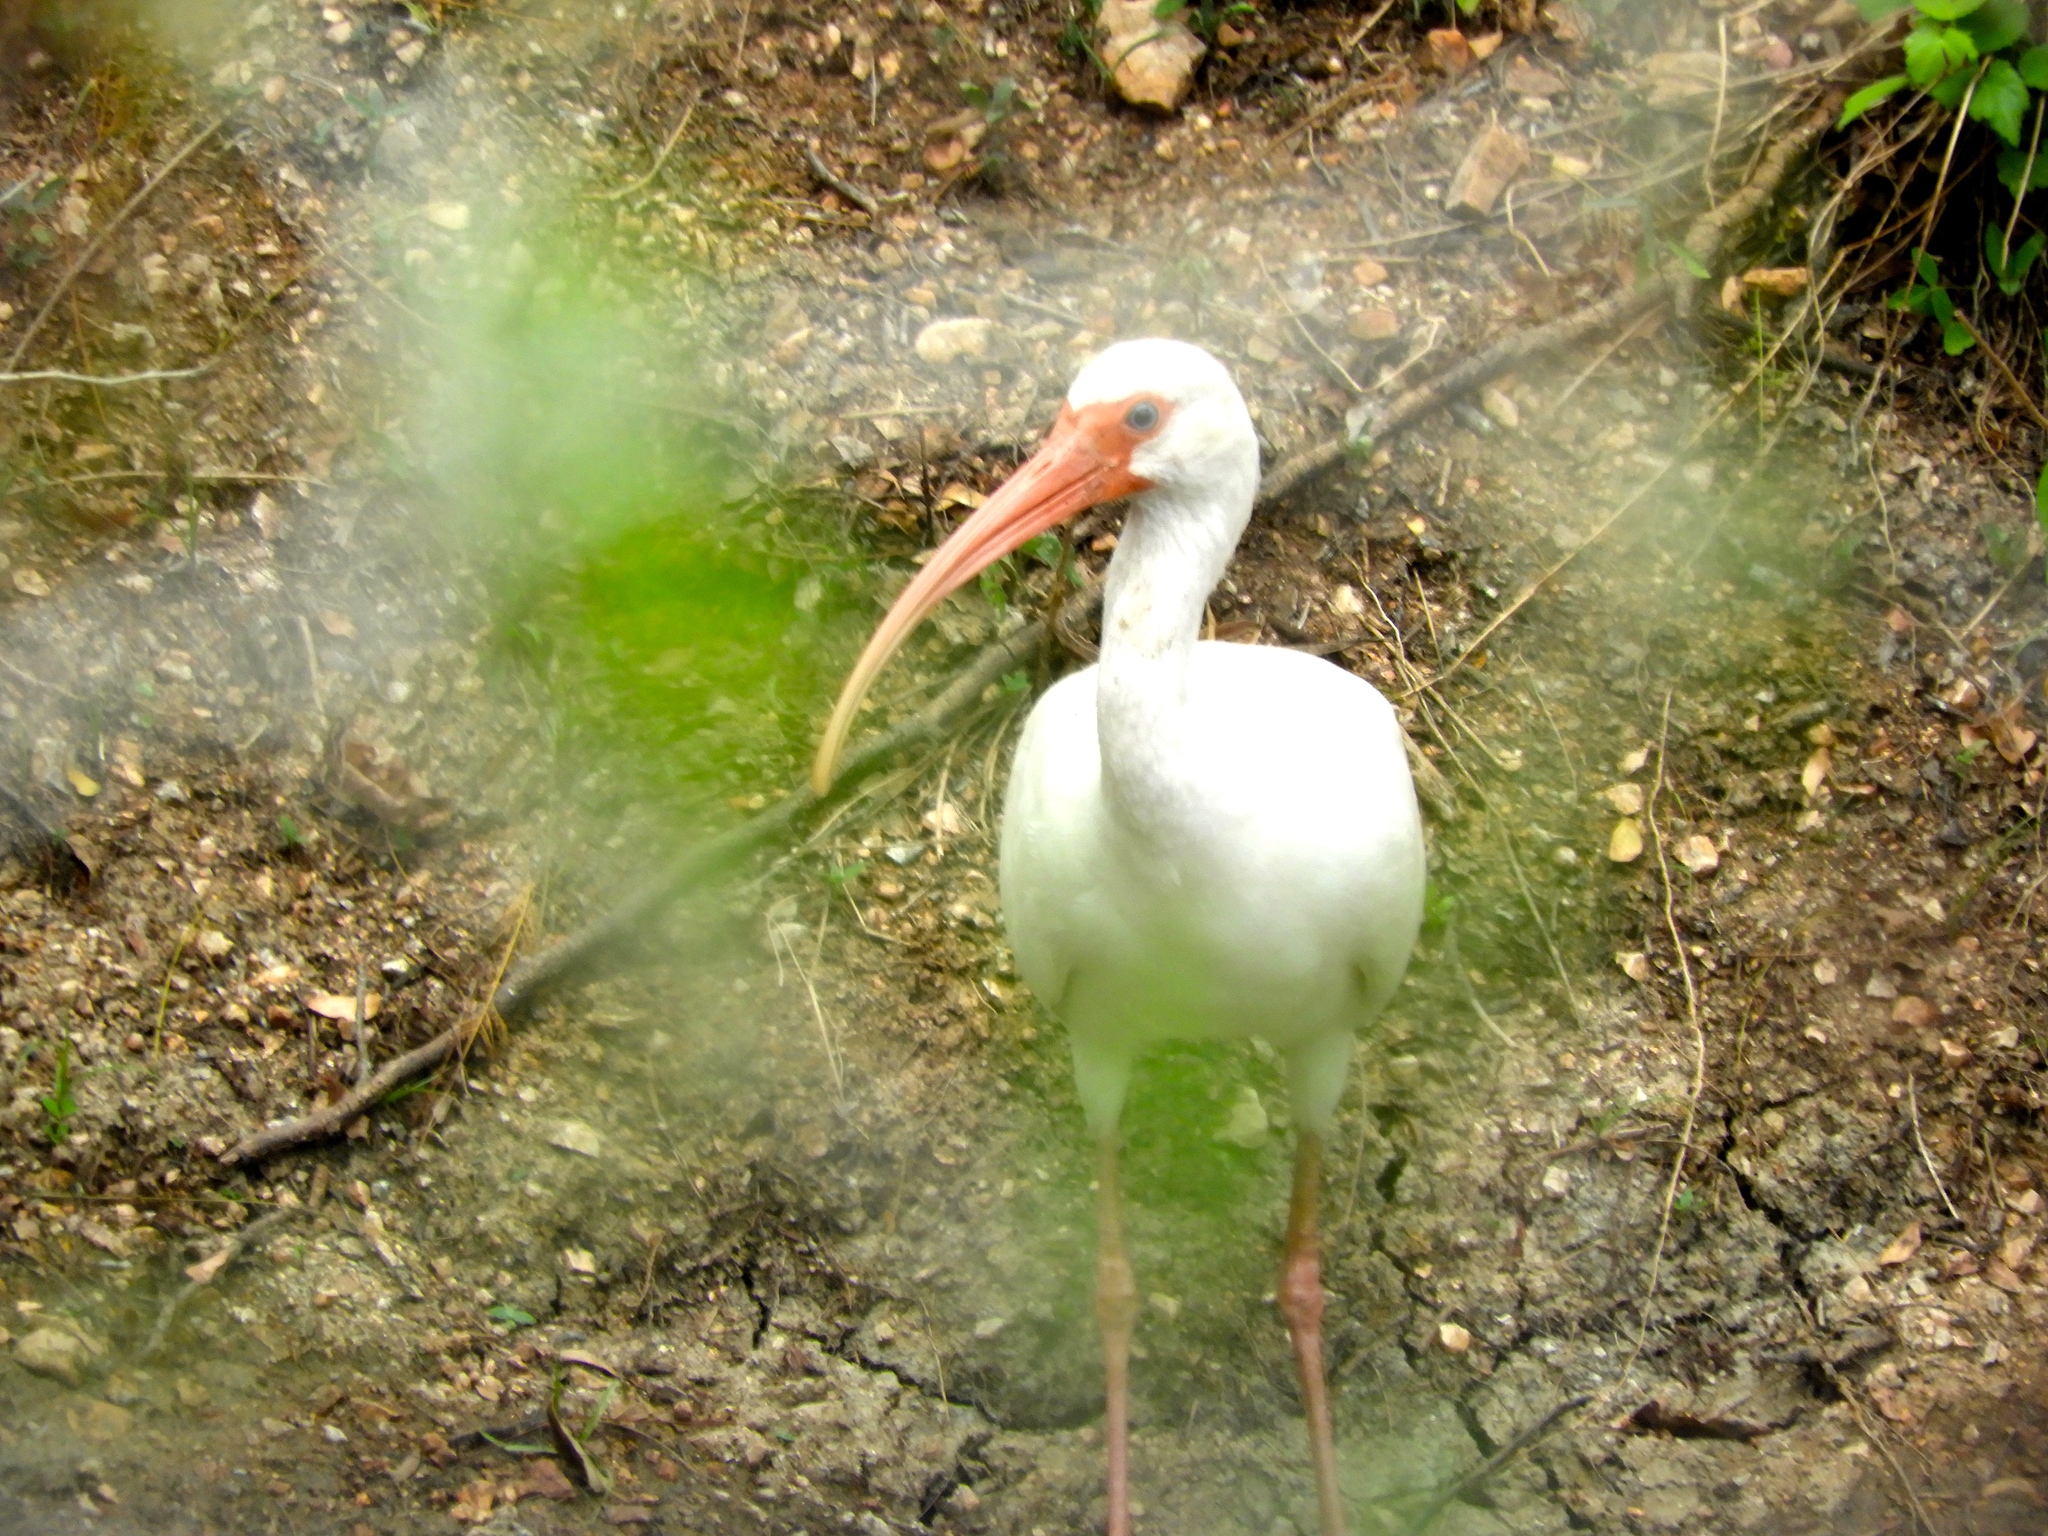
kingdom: Animalia
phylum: Chordata
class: Aves
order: Pelecaniformes
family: Threskiornithidae
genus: Eudocimus
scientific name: Eudocimus albus
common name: White ibis
